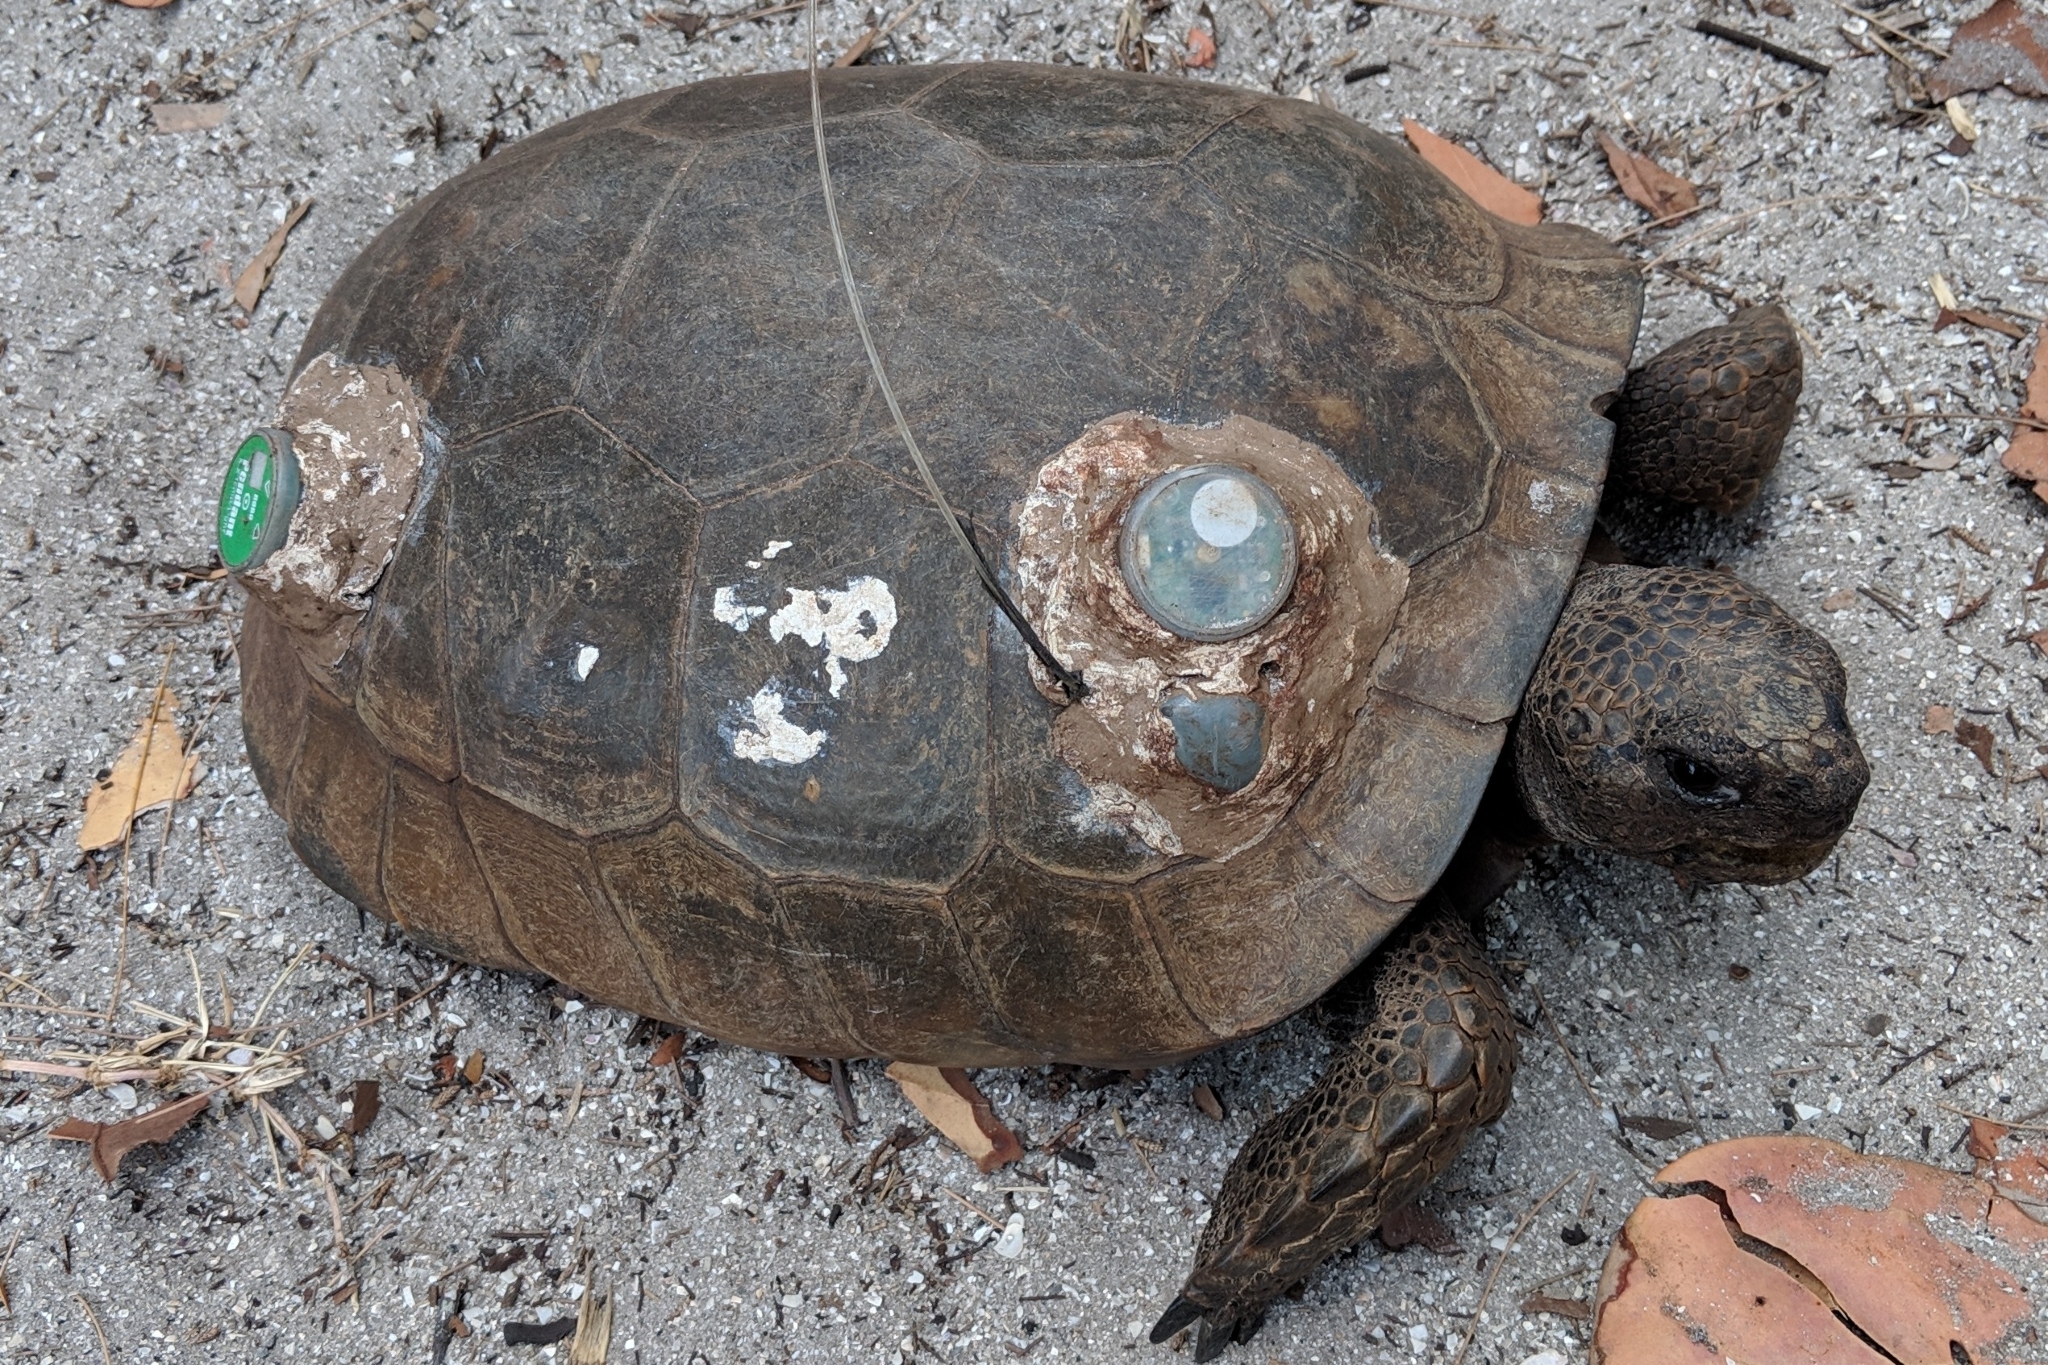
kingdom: Animalia
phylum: Chordata
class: Testudines
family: Testudinidae
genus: Gopherus
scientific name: Gopherus polyphemus
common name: Florida gopher tortoise
